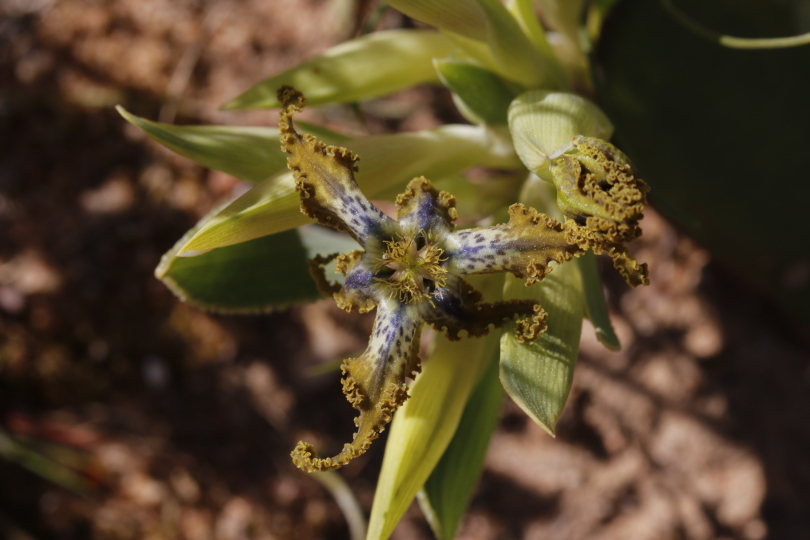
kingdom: Plantae
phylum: Tracheophyta
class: Liliopsida
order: Asparagales
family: Iridaceae
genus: Ferraria
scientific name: Ferraria uncinata
